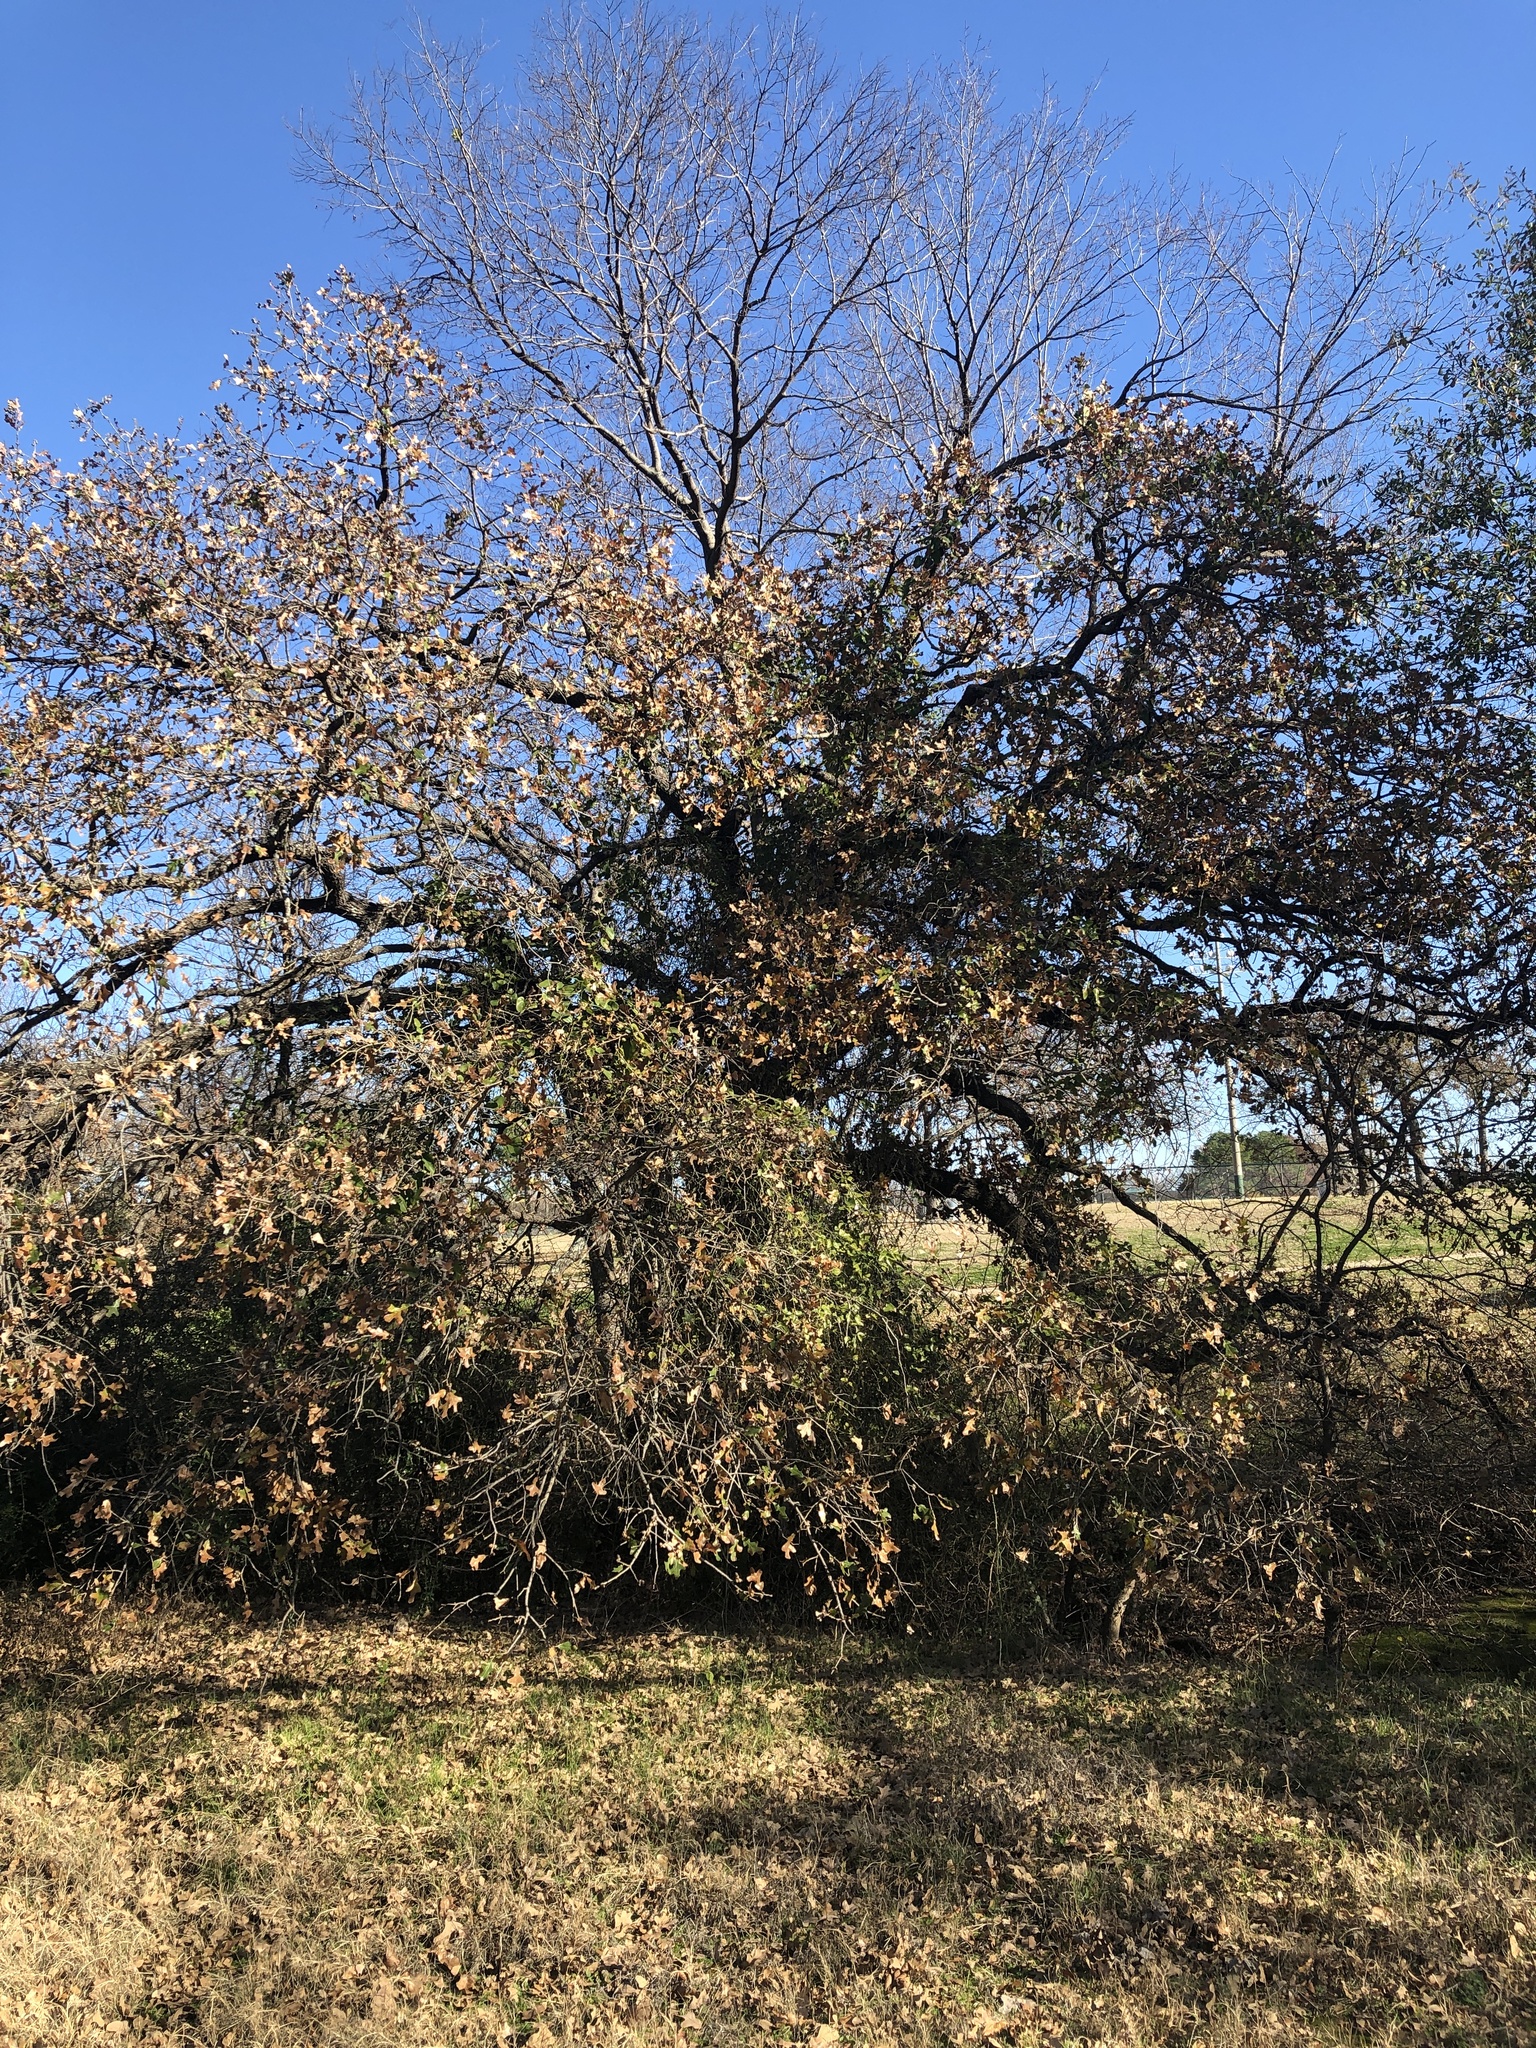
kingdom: Plantae
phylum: Tracheophyta
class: Magnoliopsida
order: Fagales
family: Fagaceae
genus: Quercus
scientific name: Quercus stellata
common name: Post oak
